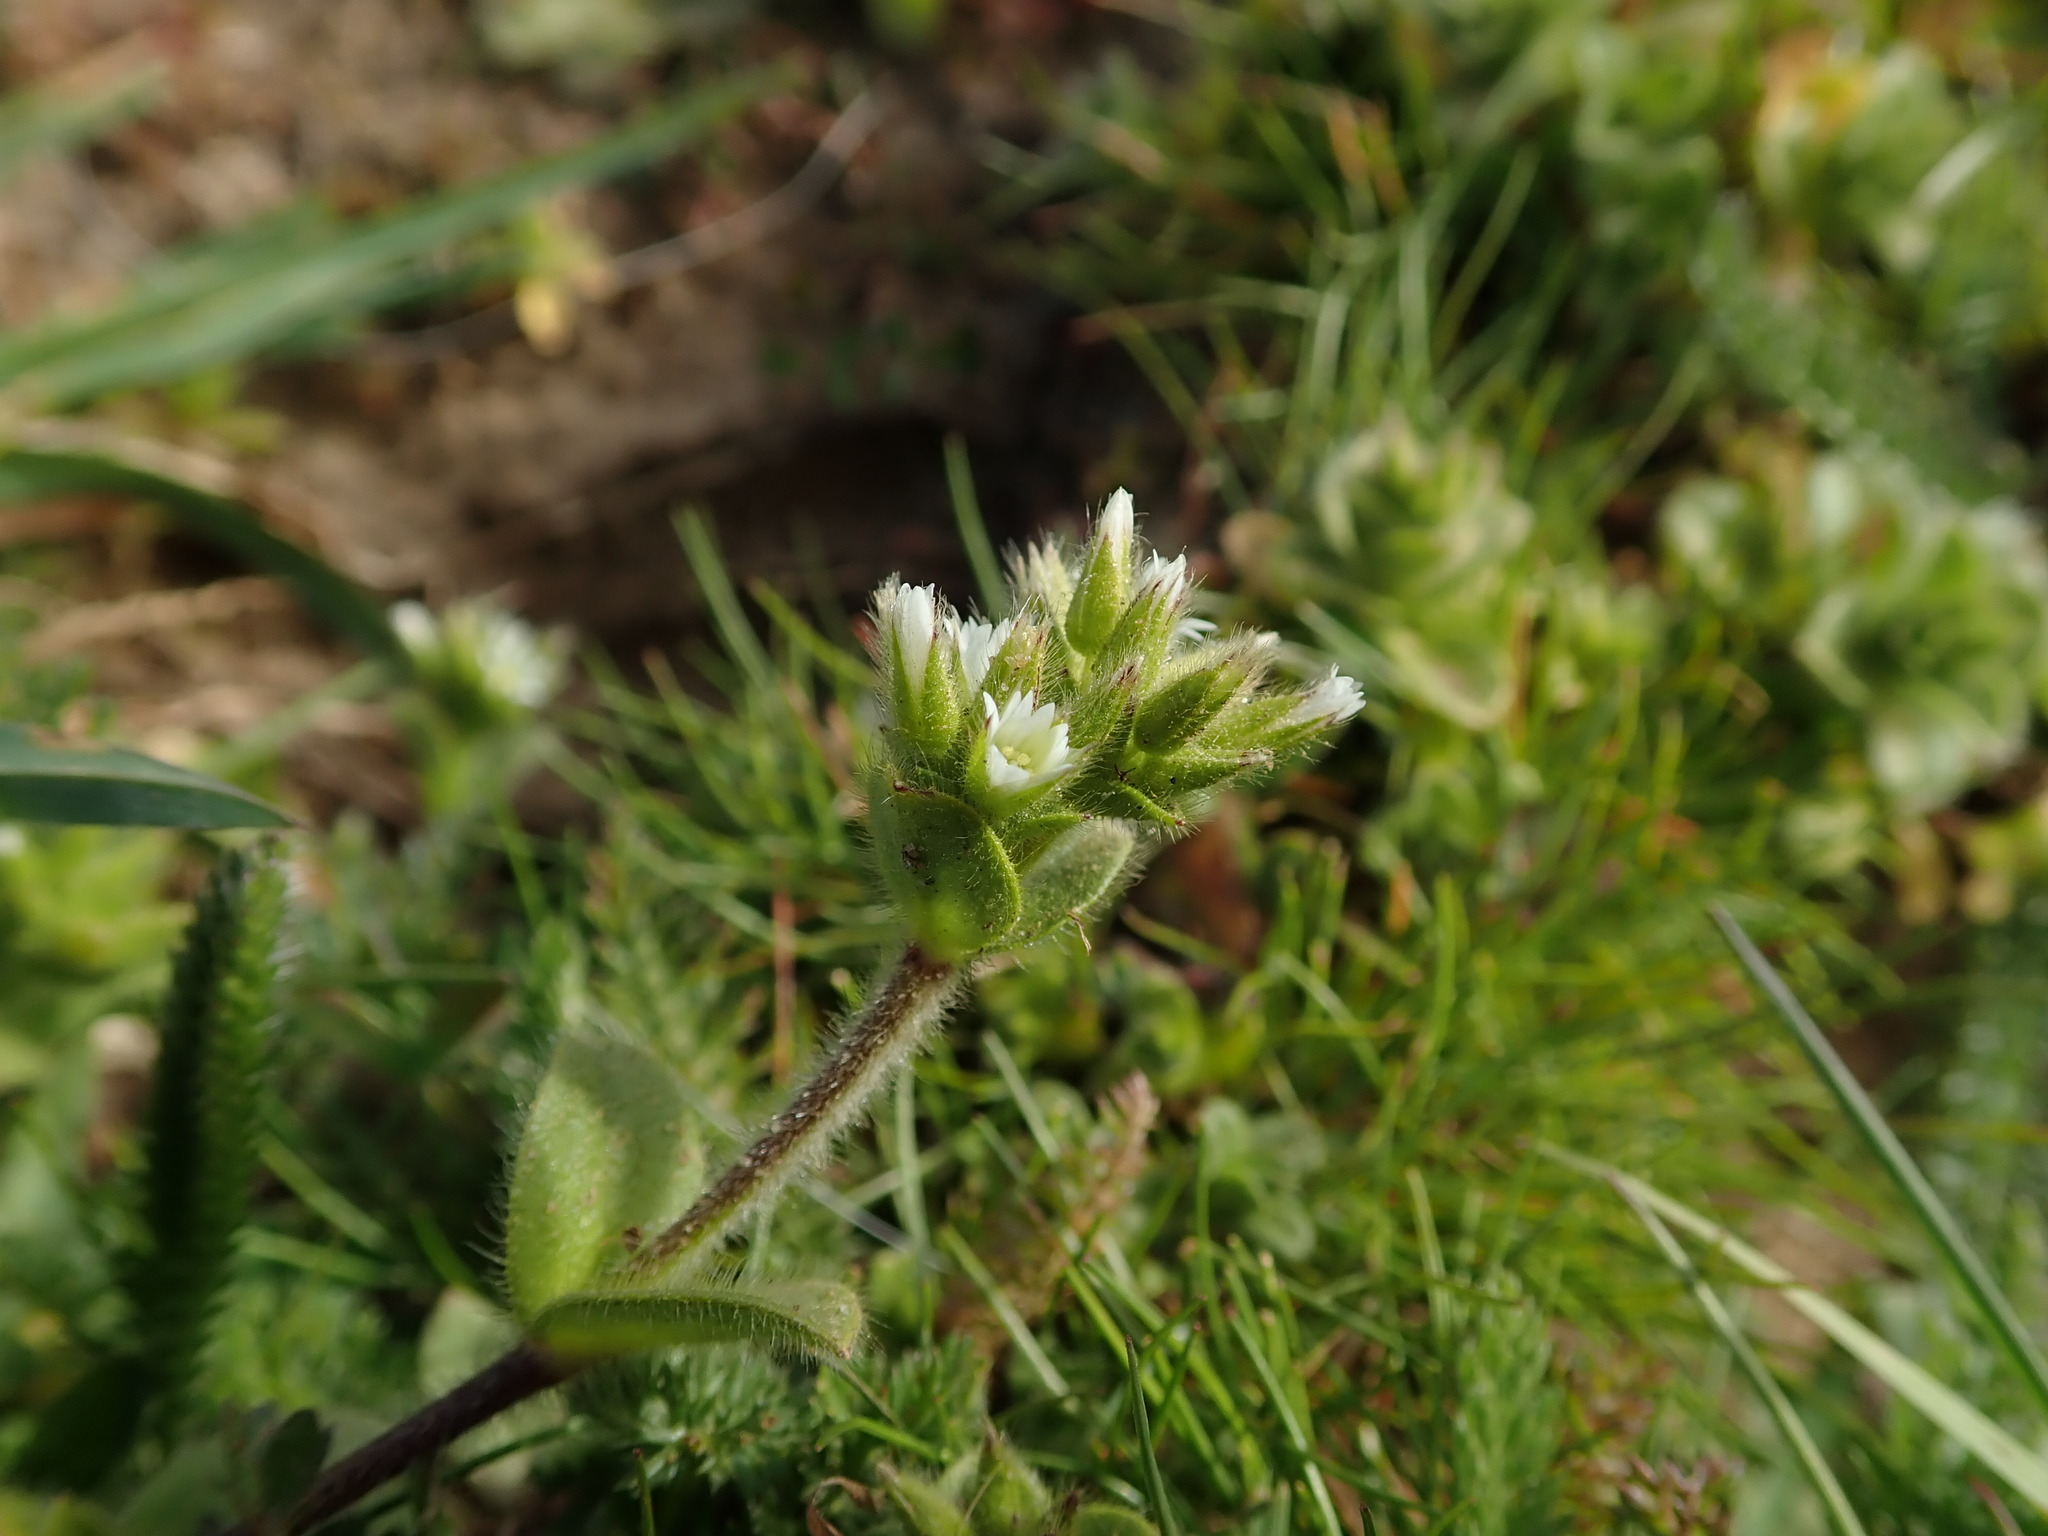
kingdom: Plantae
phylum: Tracheophyta
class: Magnoliopsida
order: Caryophyllales
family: Caryophyllaceae
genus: Cerastium
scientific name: Cerastium glomeratum
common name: Sticky chickweed
